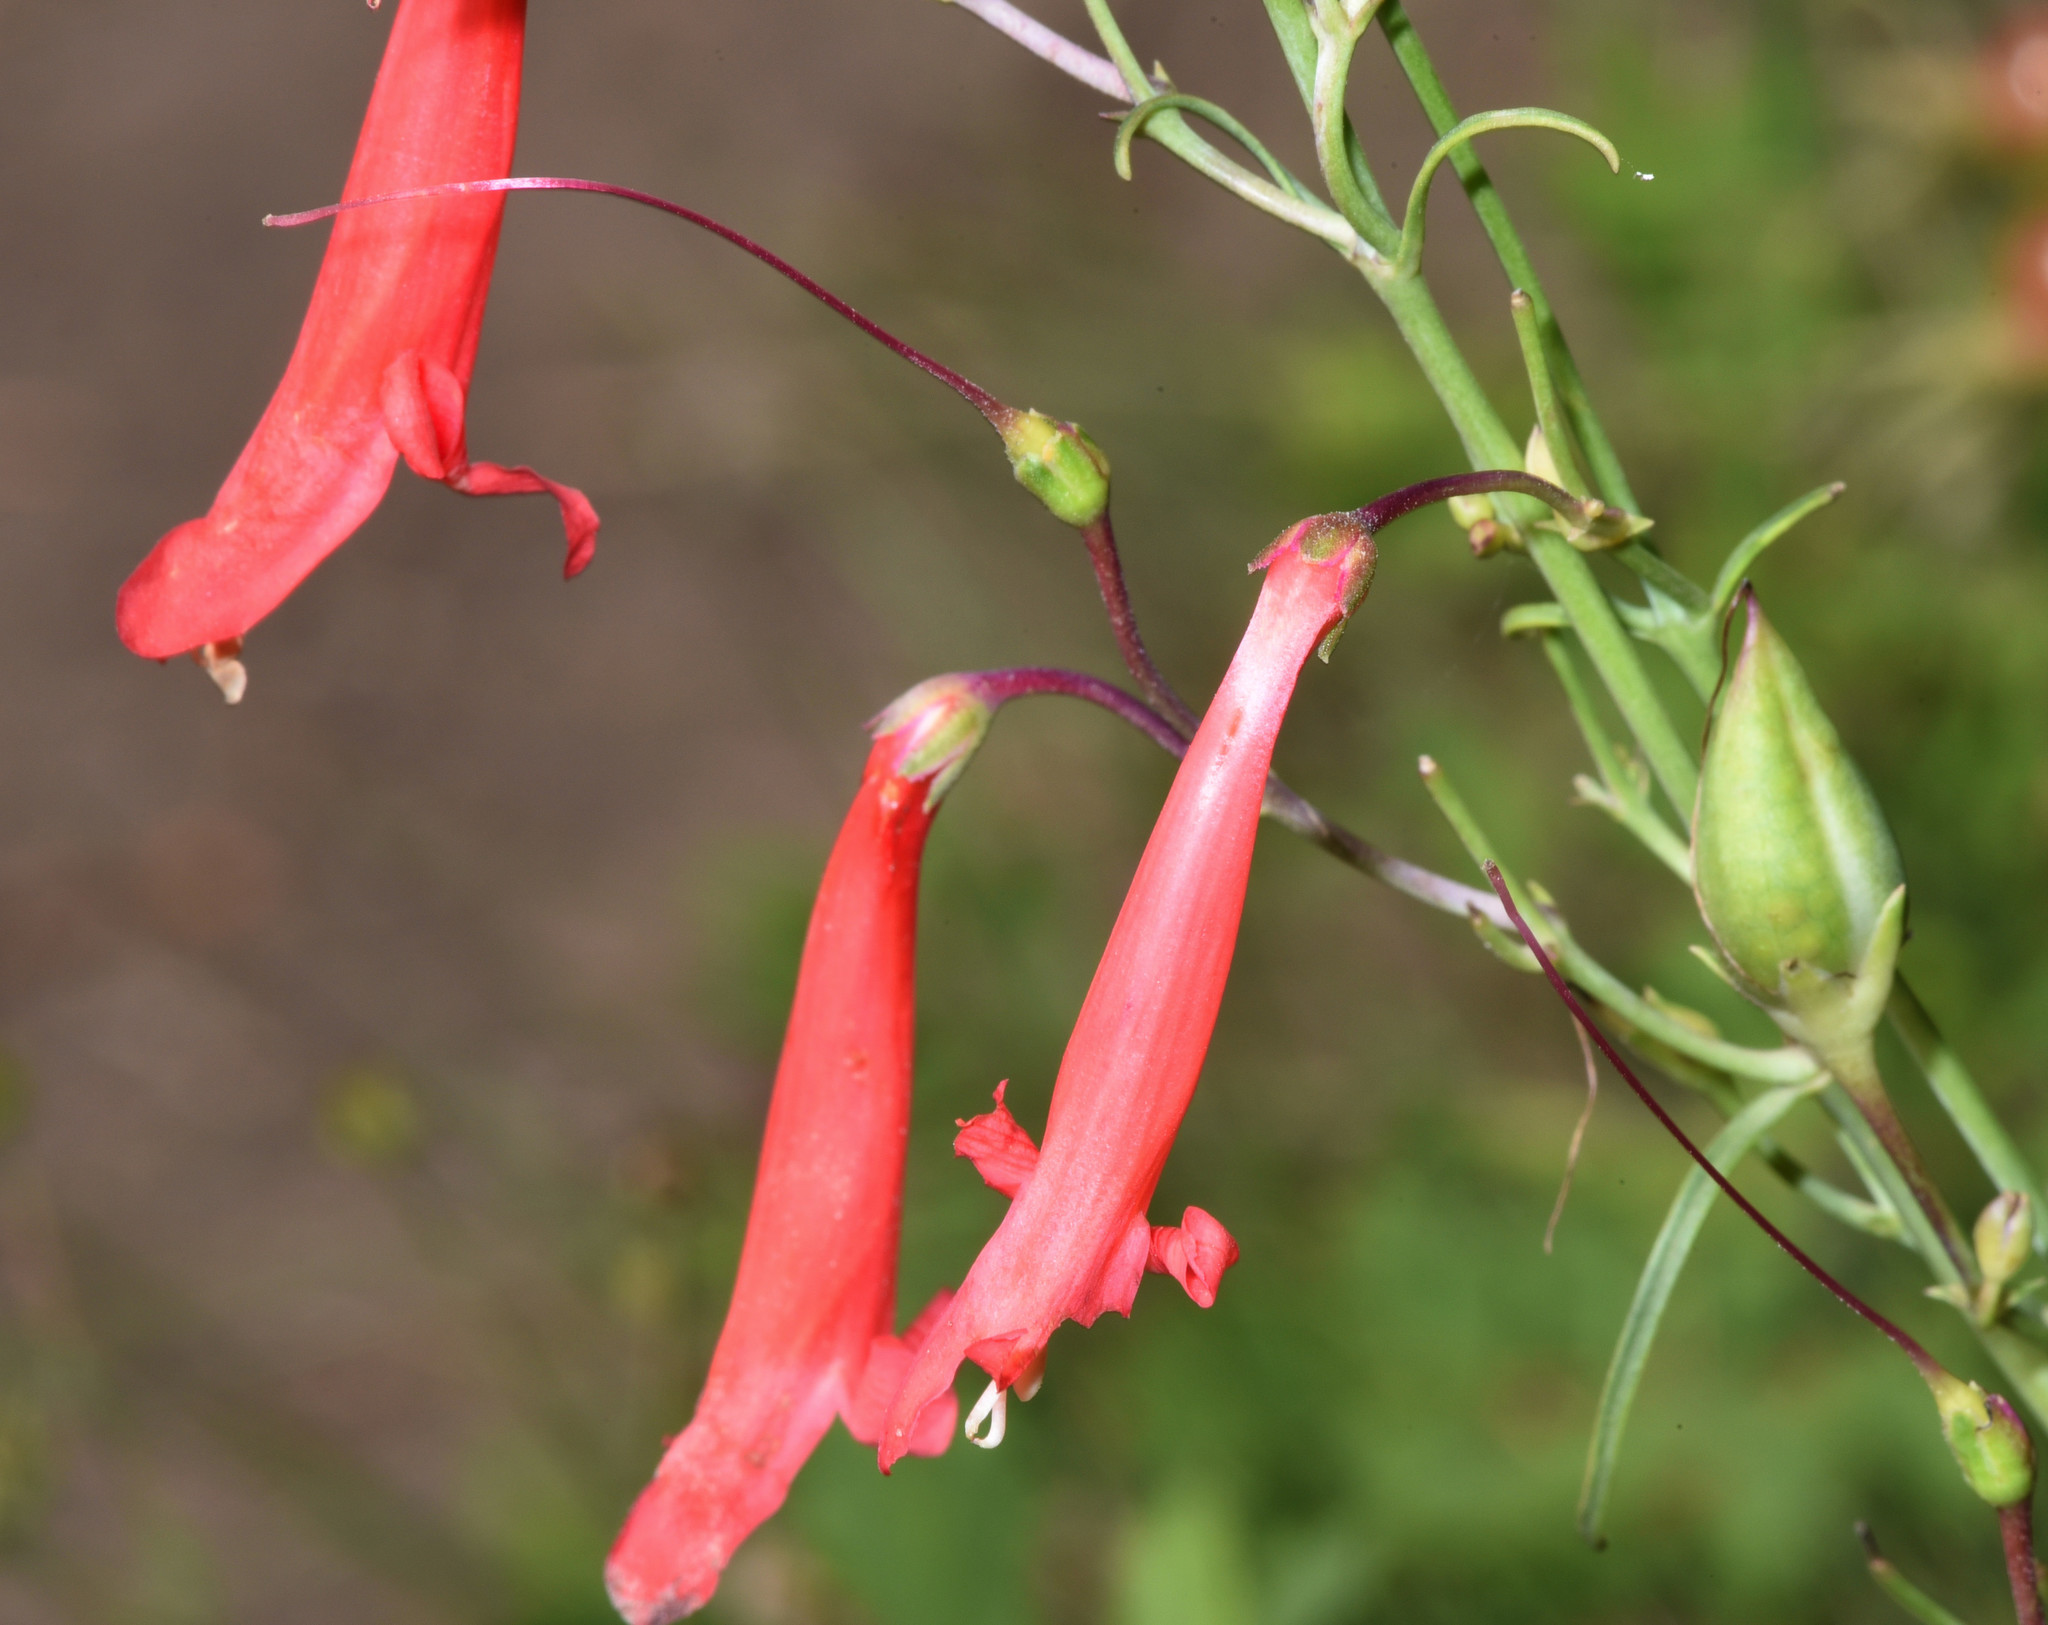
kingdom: Plantae
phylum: Tracheophyta
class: Magnoliopsida
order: Lamiales
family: Plantaginaceae
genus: Penstemon
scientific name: Penstemon barbatus
